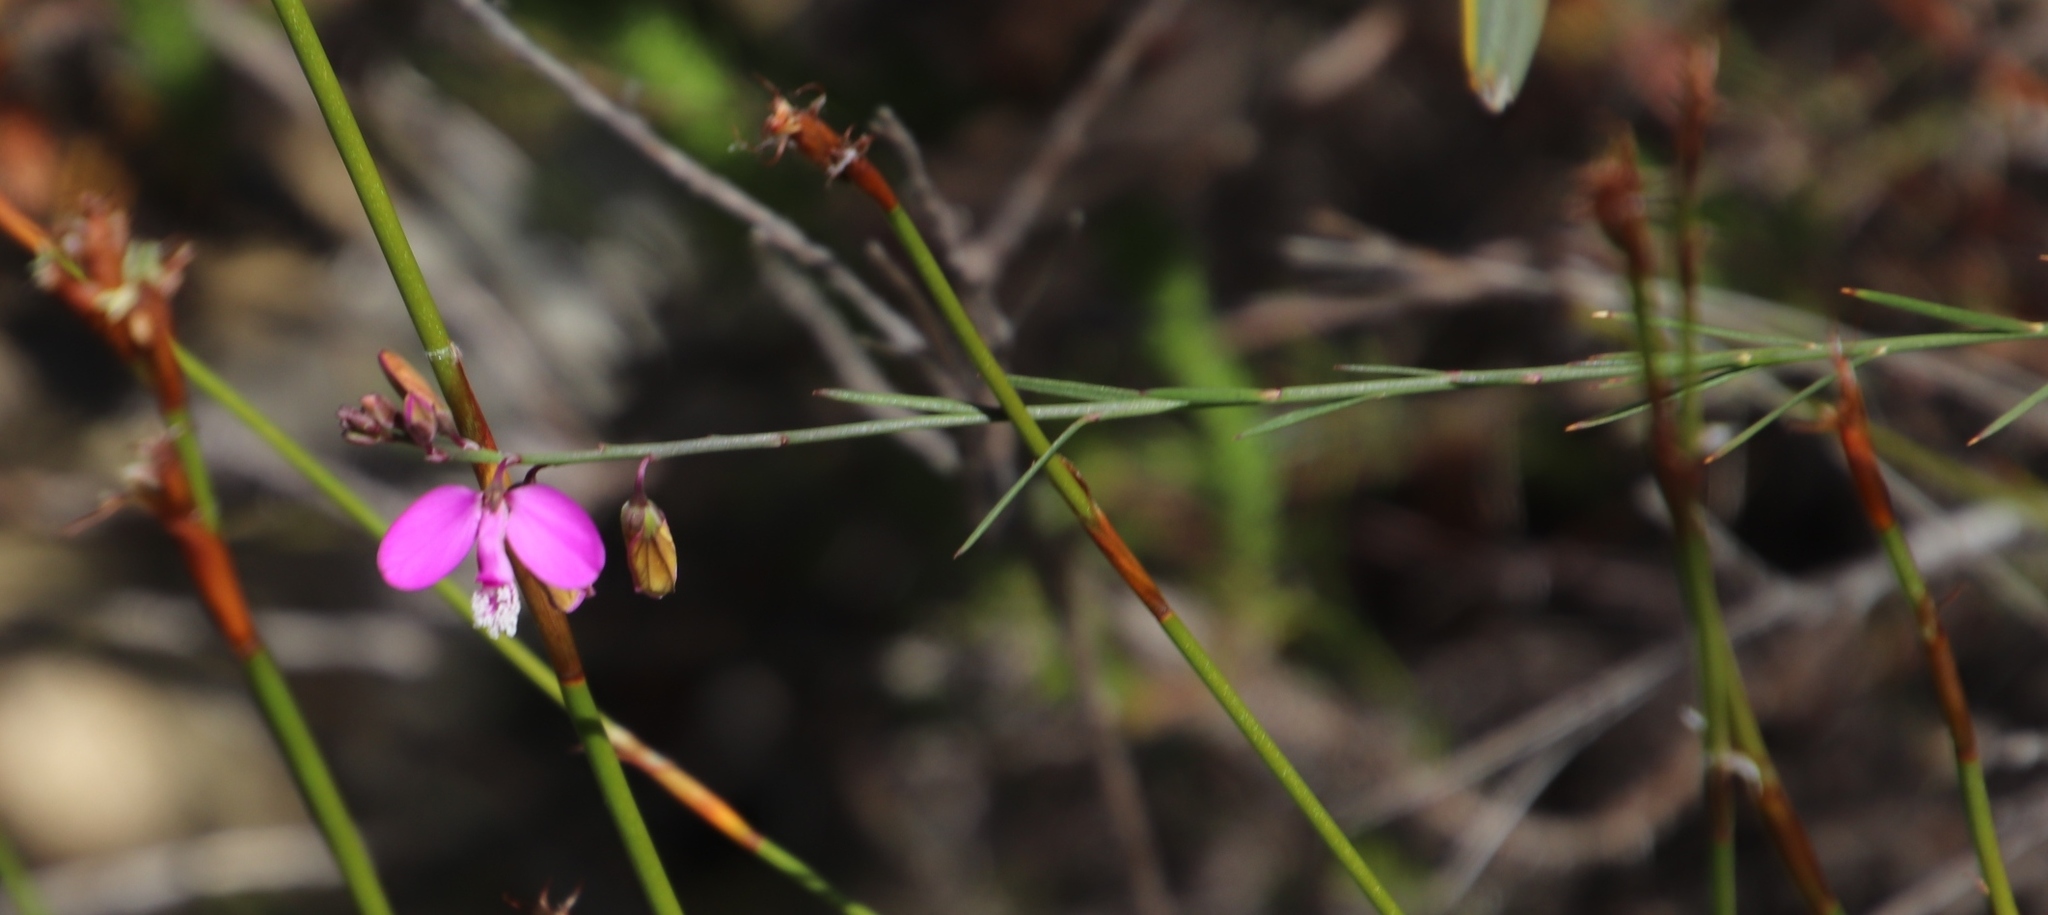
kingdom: Plantae
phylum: Tracheophyta
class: Magnoliopsida
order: Fabales
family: Polygalaceae
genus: Polygala
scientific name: Polygala garcini
